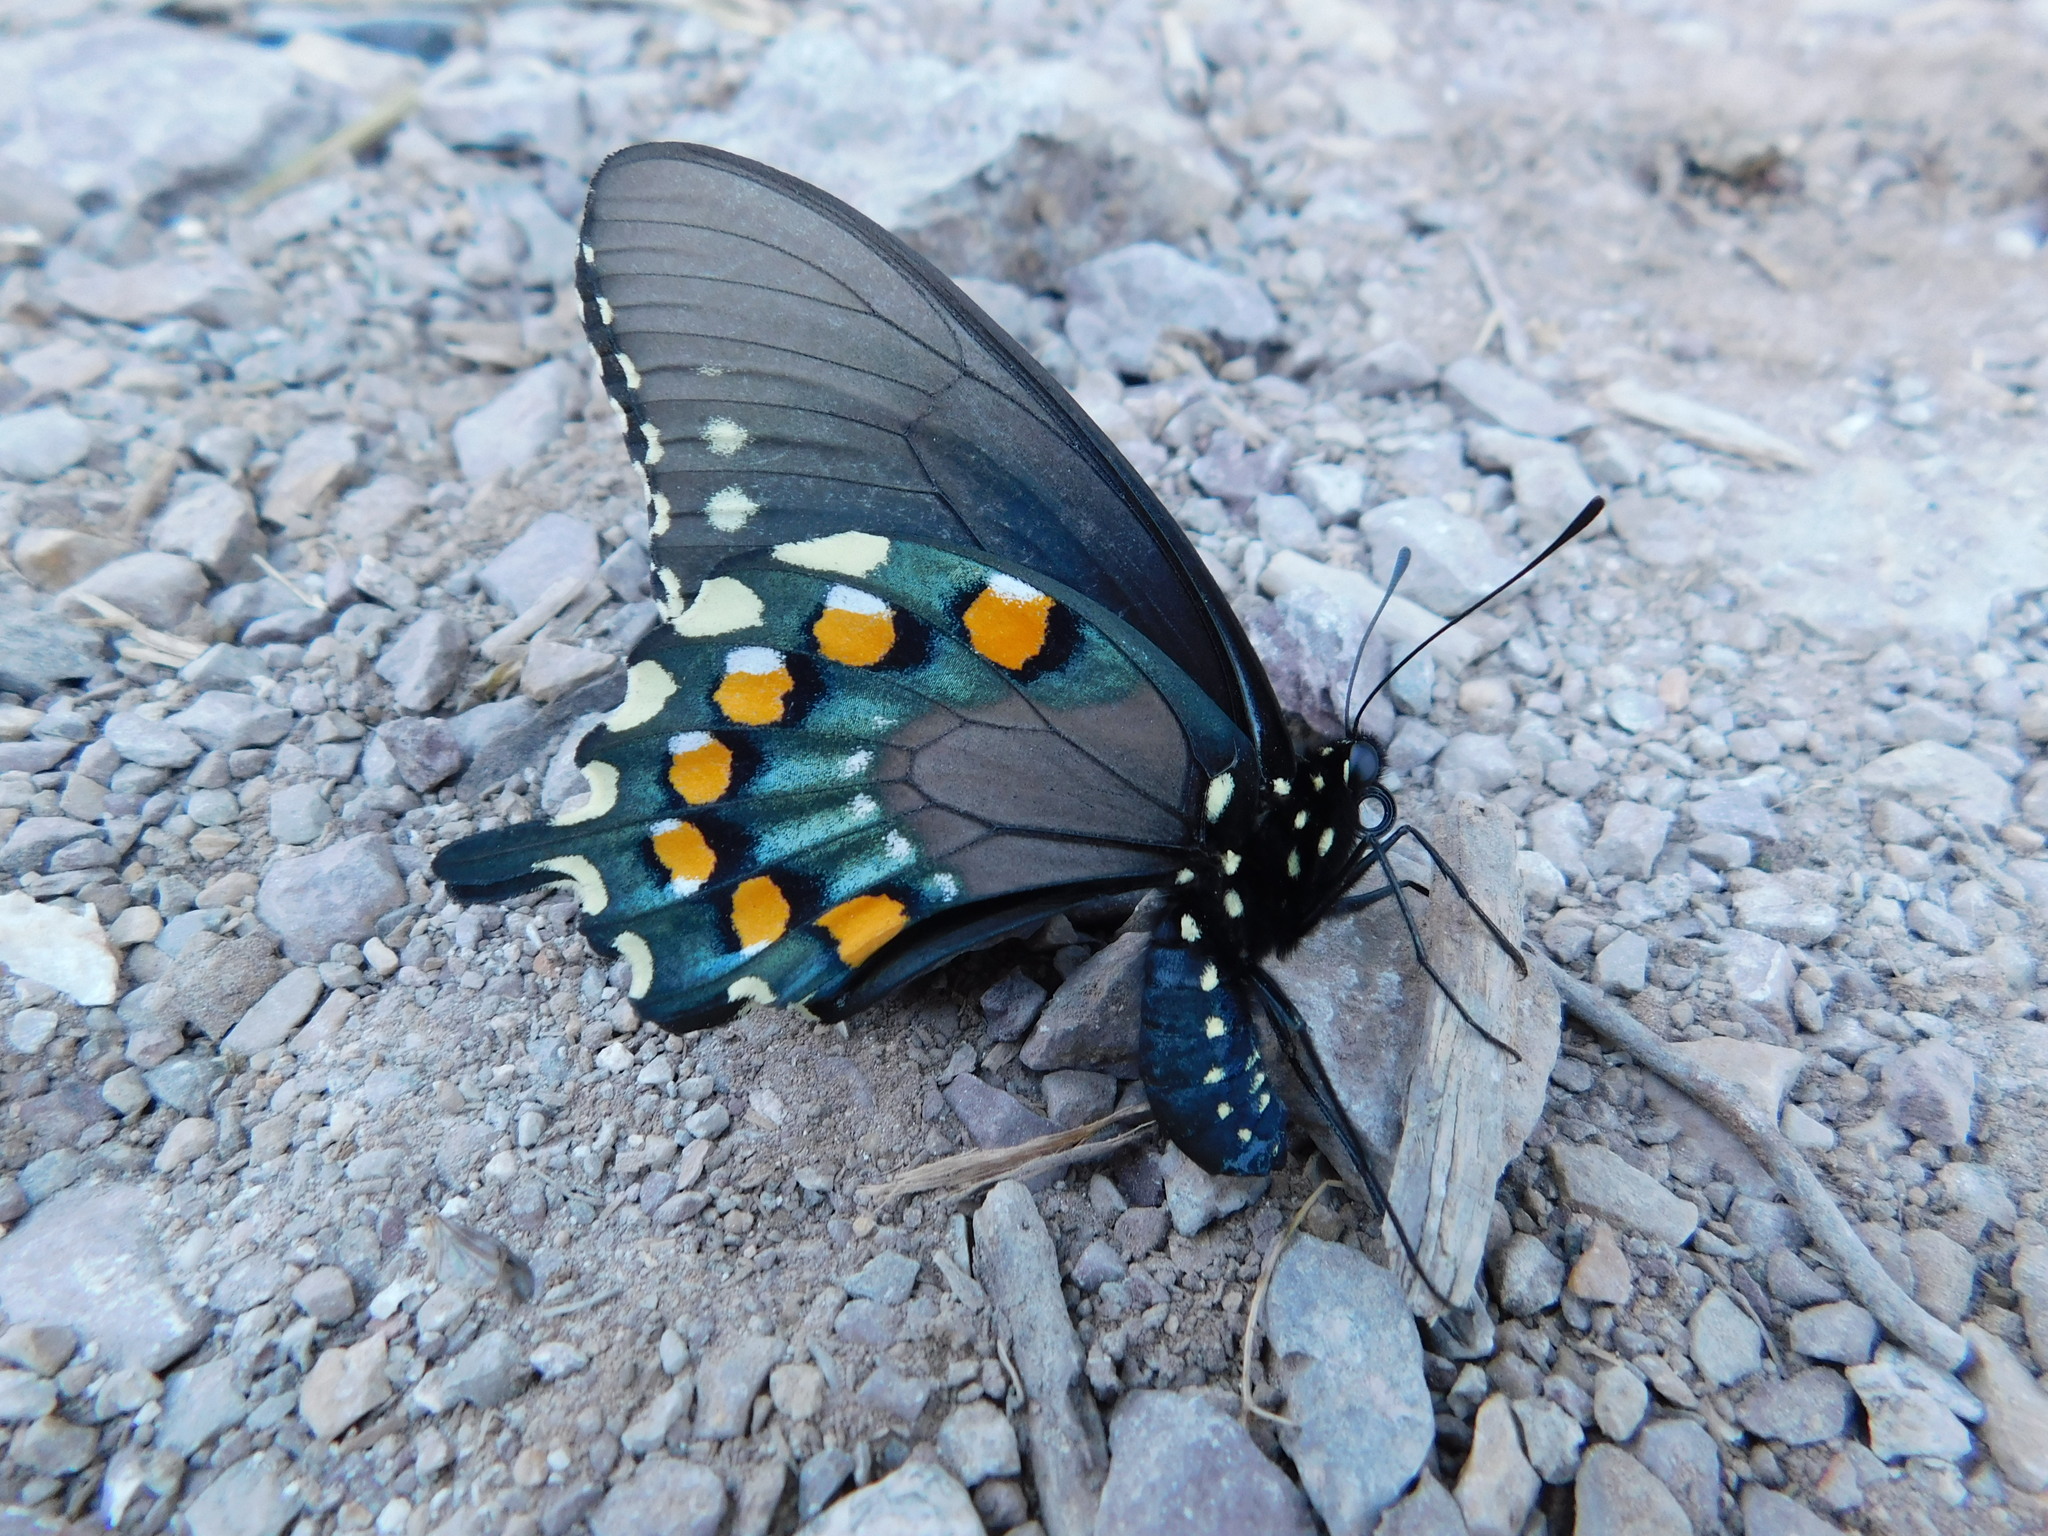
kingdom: Animalia
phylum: Arthropoda
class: Insecta
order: Lepidoptera
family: Papilionidae
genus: Battus
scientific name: Battus philenor
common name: Pipevine swallowtail
